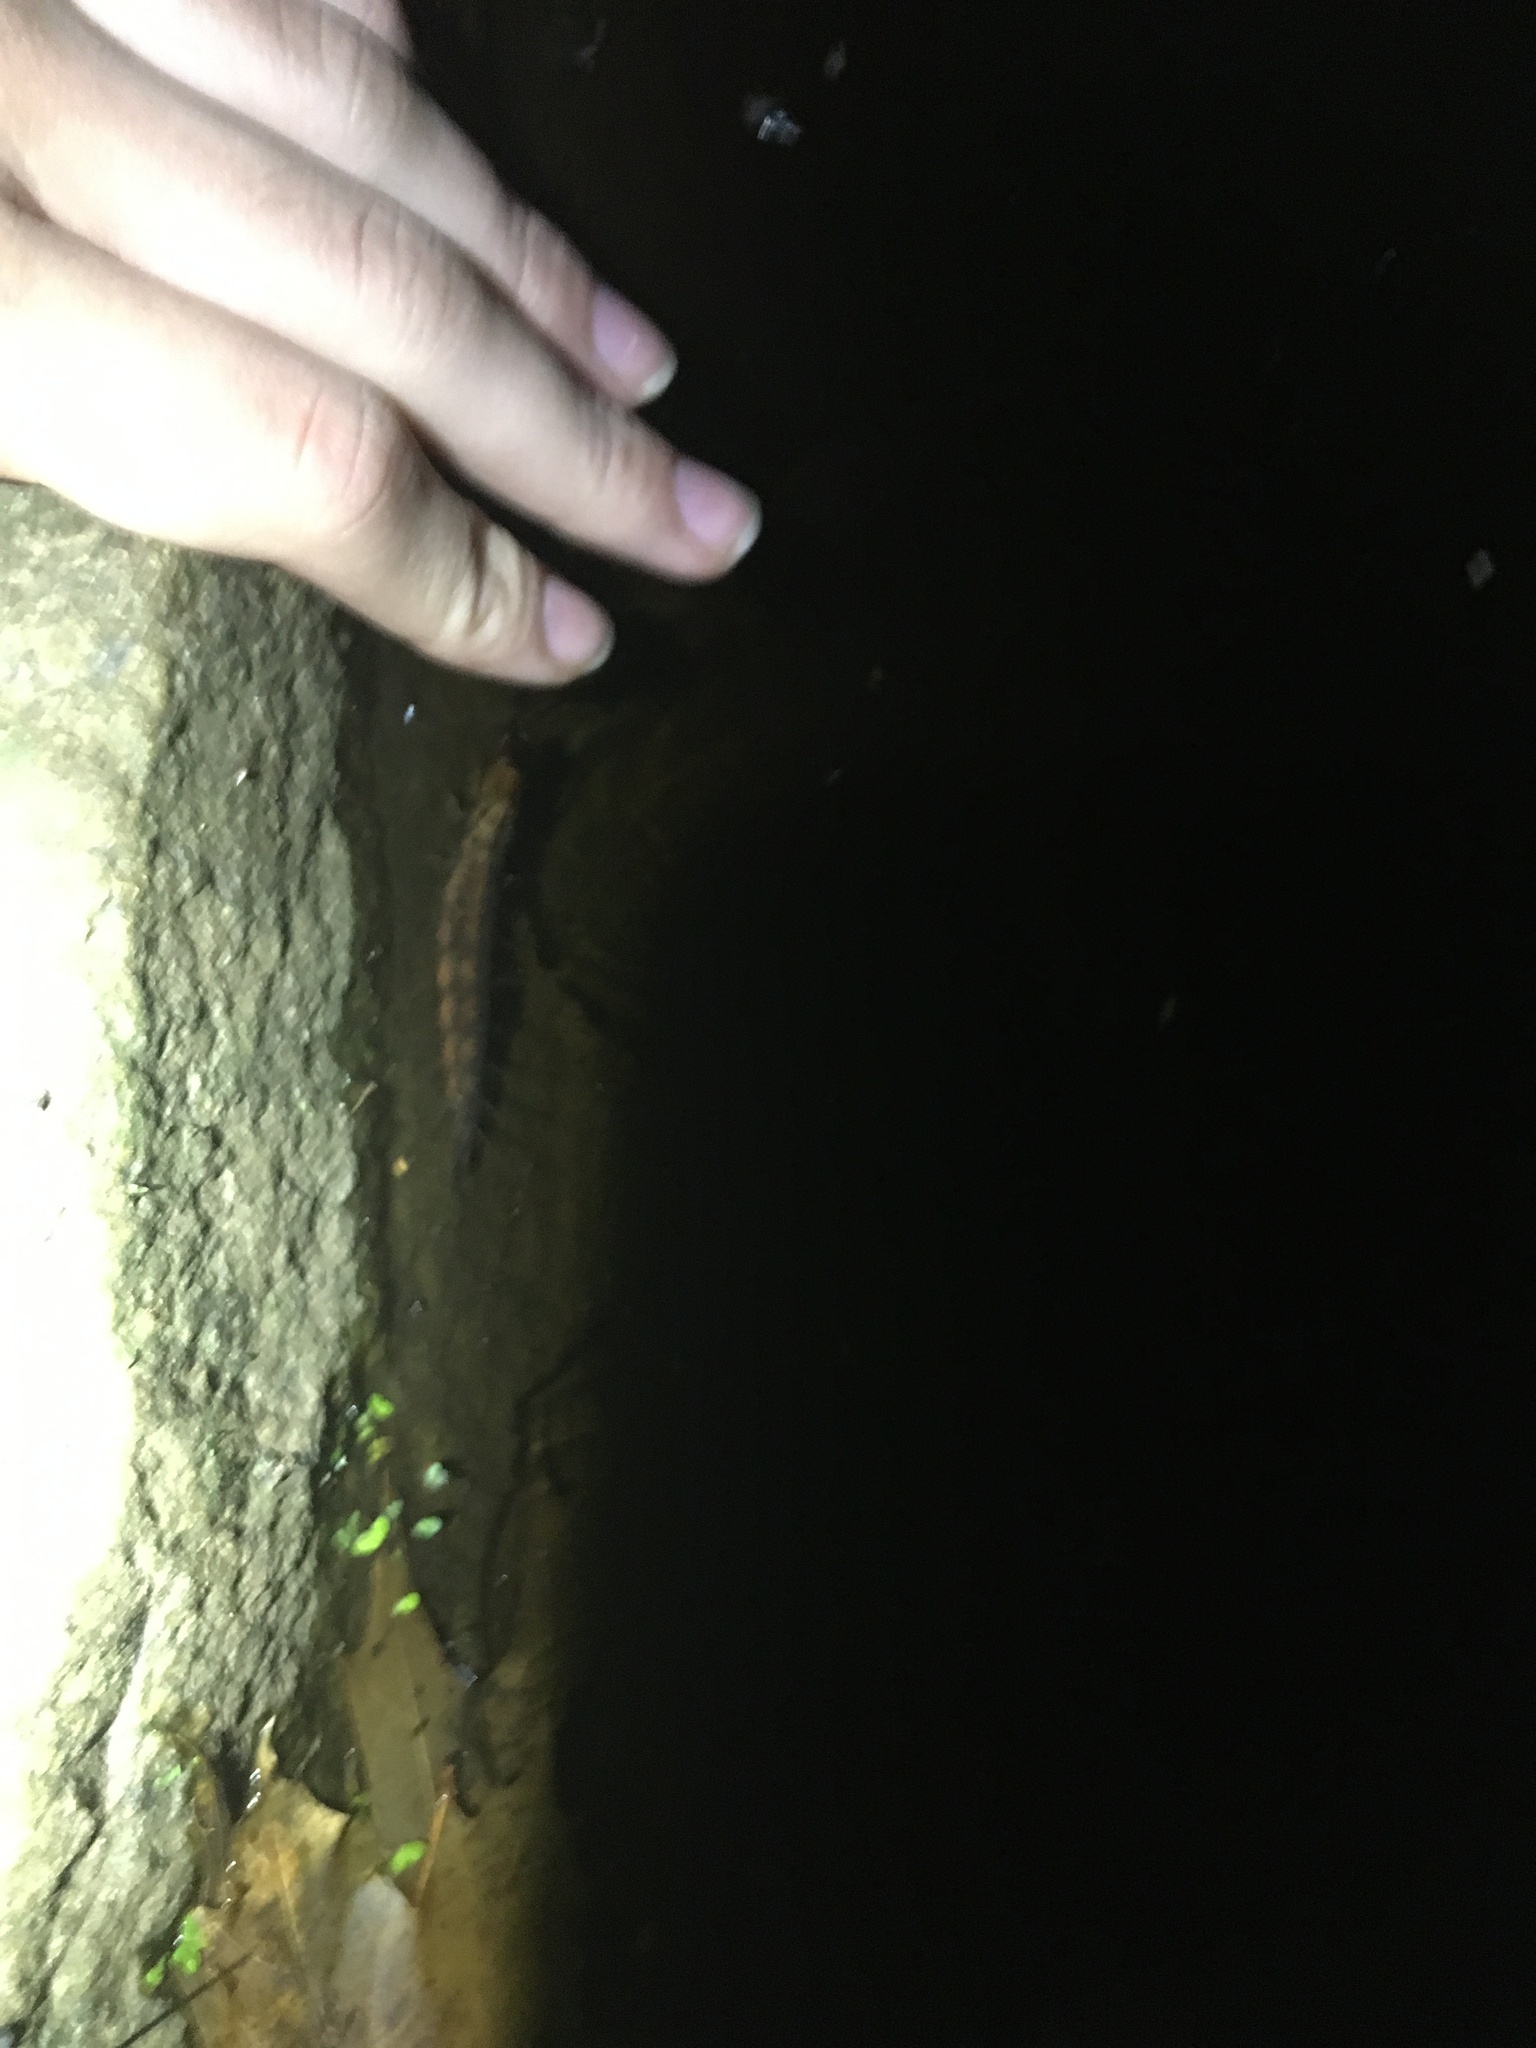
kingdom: Animalia
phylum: Arthropoda
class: Insecta
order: Megaloptera
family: Corydalidae
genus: Chauliodes
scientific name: Chauliodes
